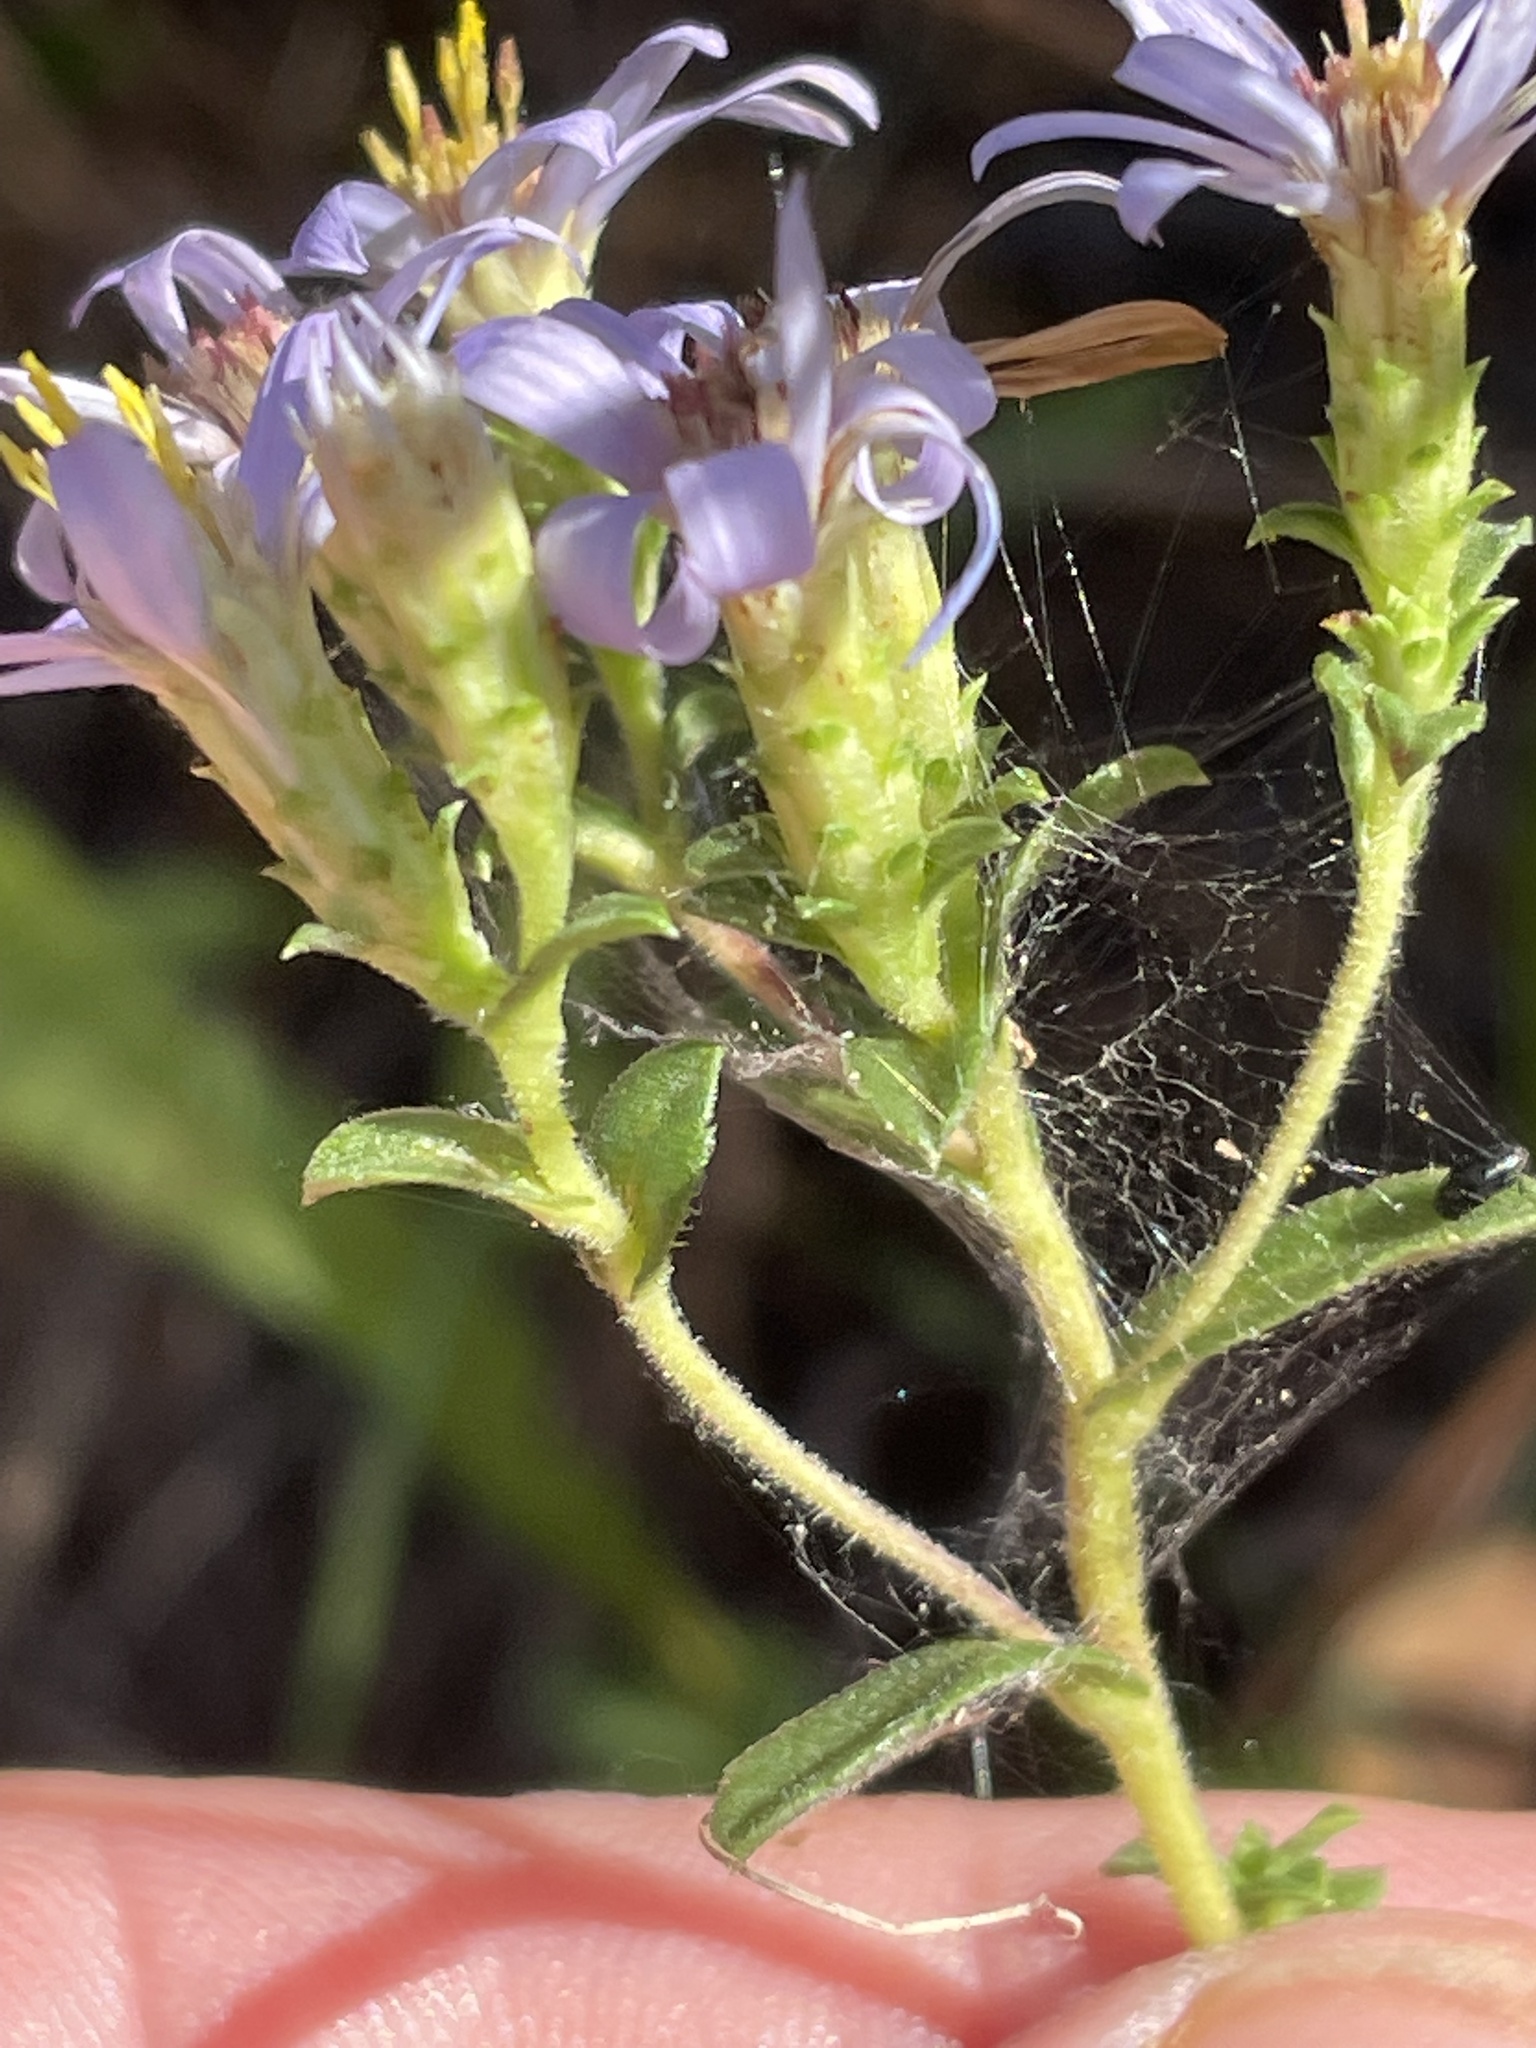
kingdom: Plantae
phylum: Tracheophyta
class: Magnoliopsida
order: Asterales
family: Asteraceae
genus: Eurybia
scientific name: Eurybia compacta
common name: Slender aster
